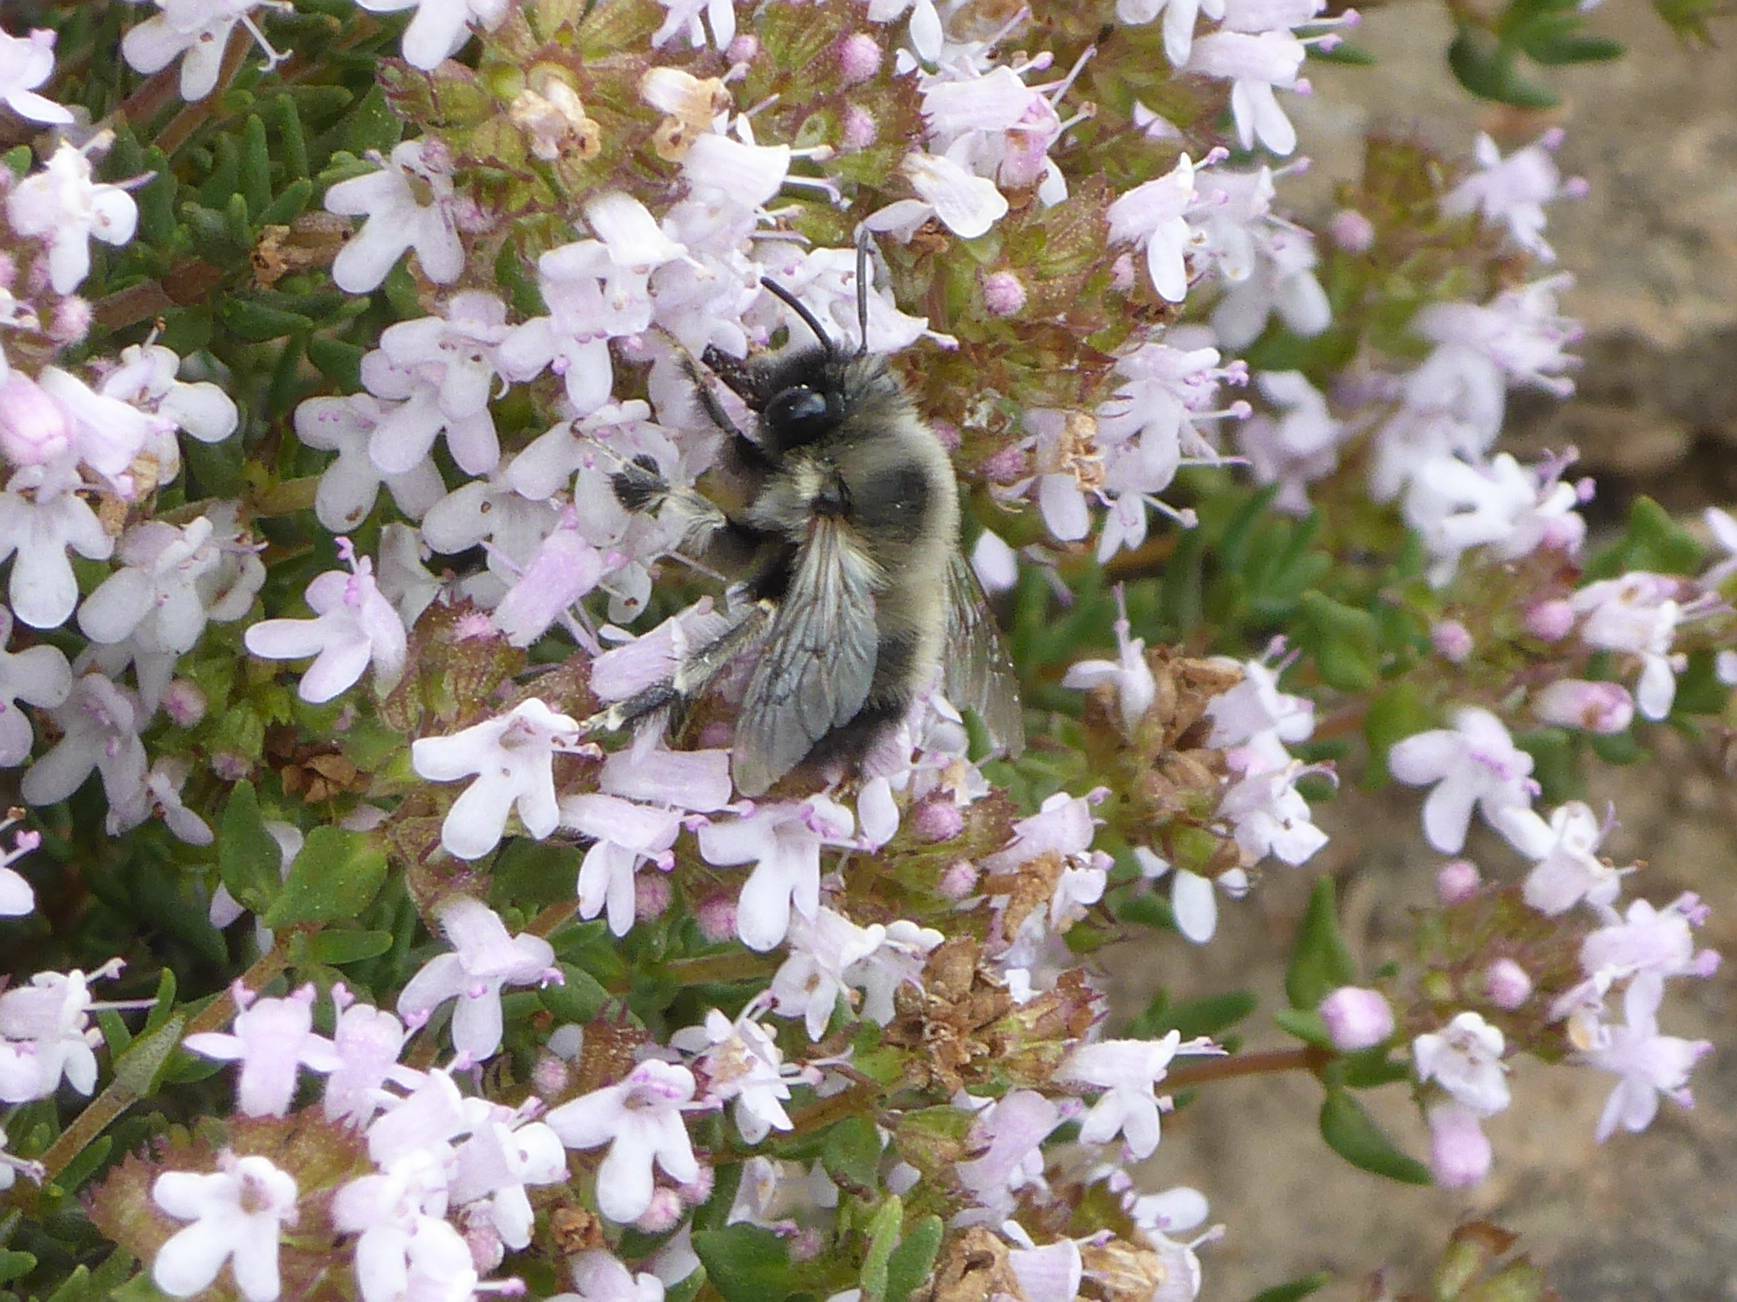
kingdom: Animalia
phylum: Arthropoda
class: Insecta
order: Hymenoptera
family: Apidae
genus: Anthophora
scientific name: Anthophora atriceps
